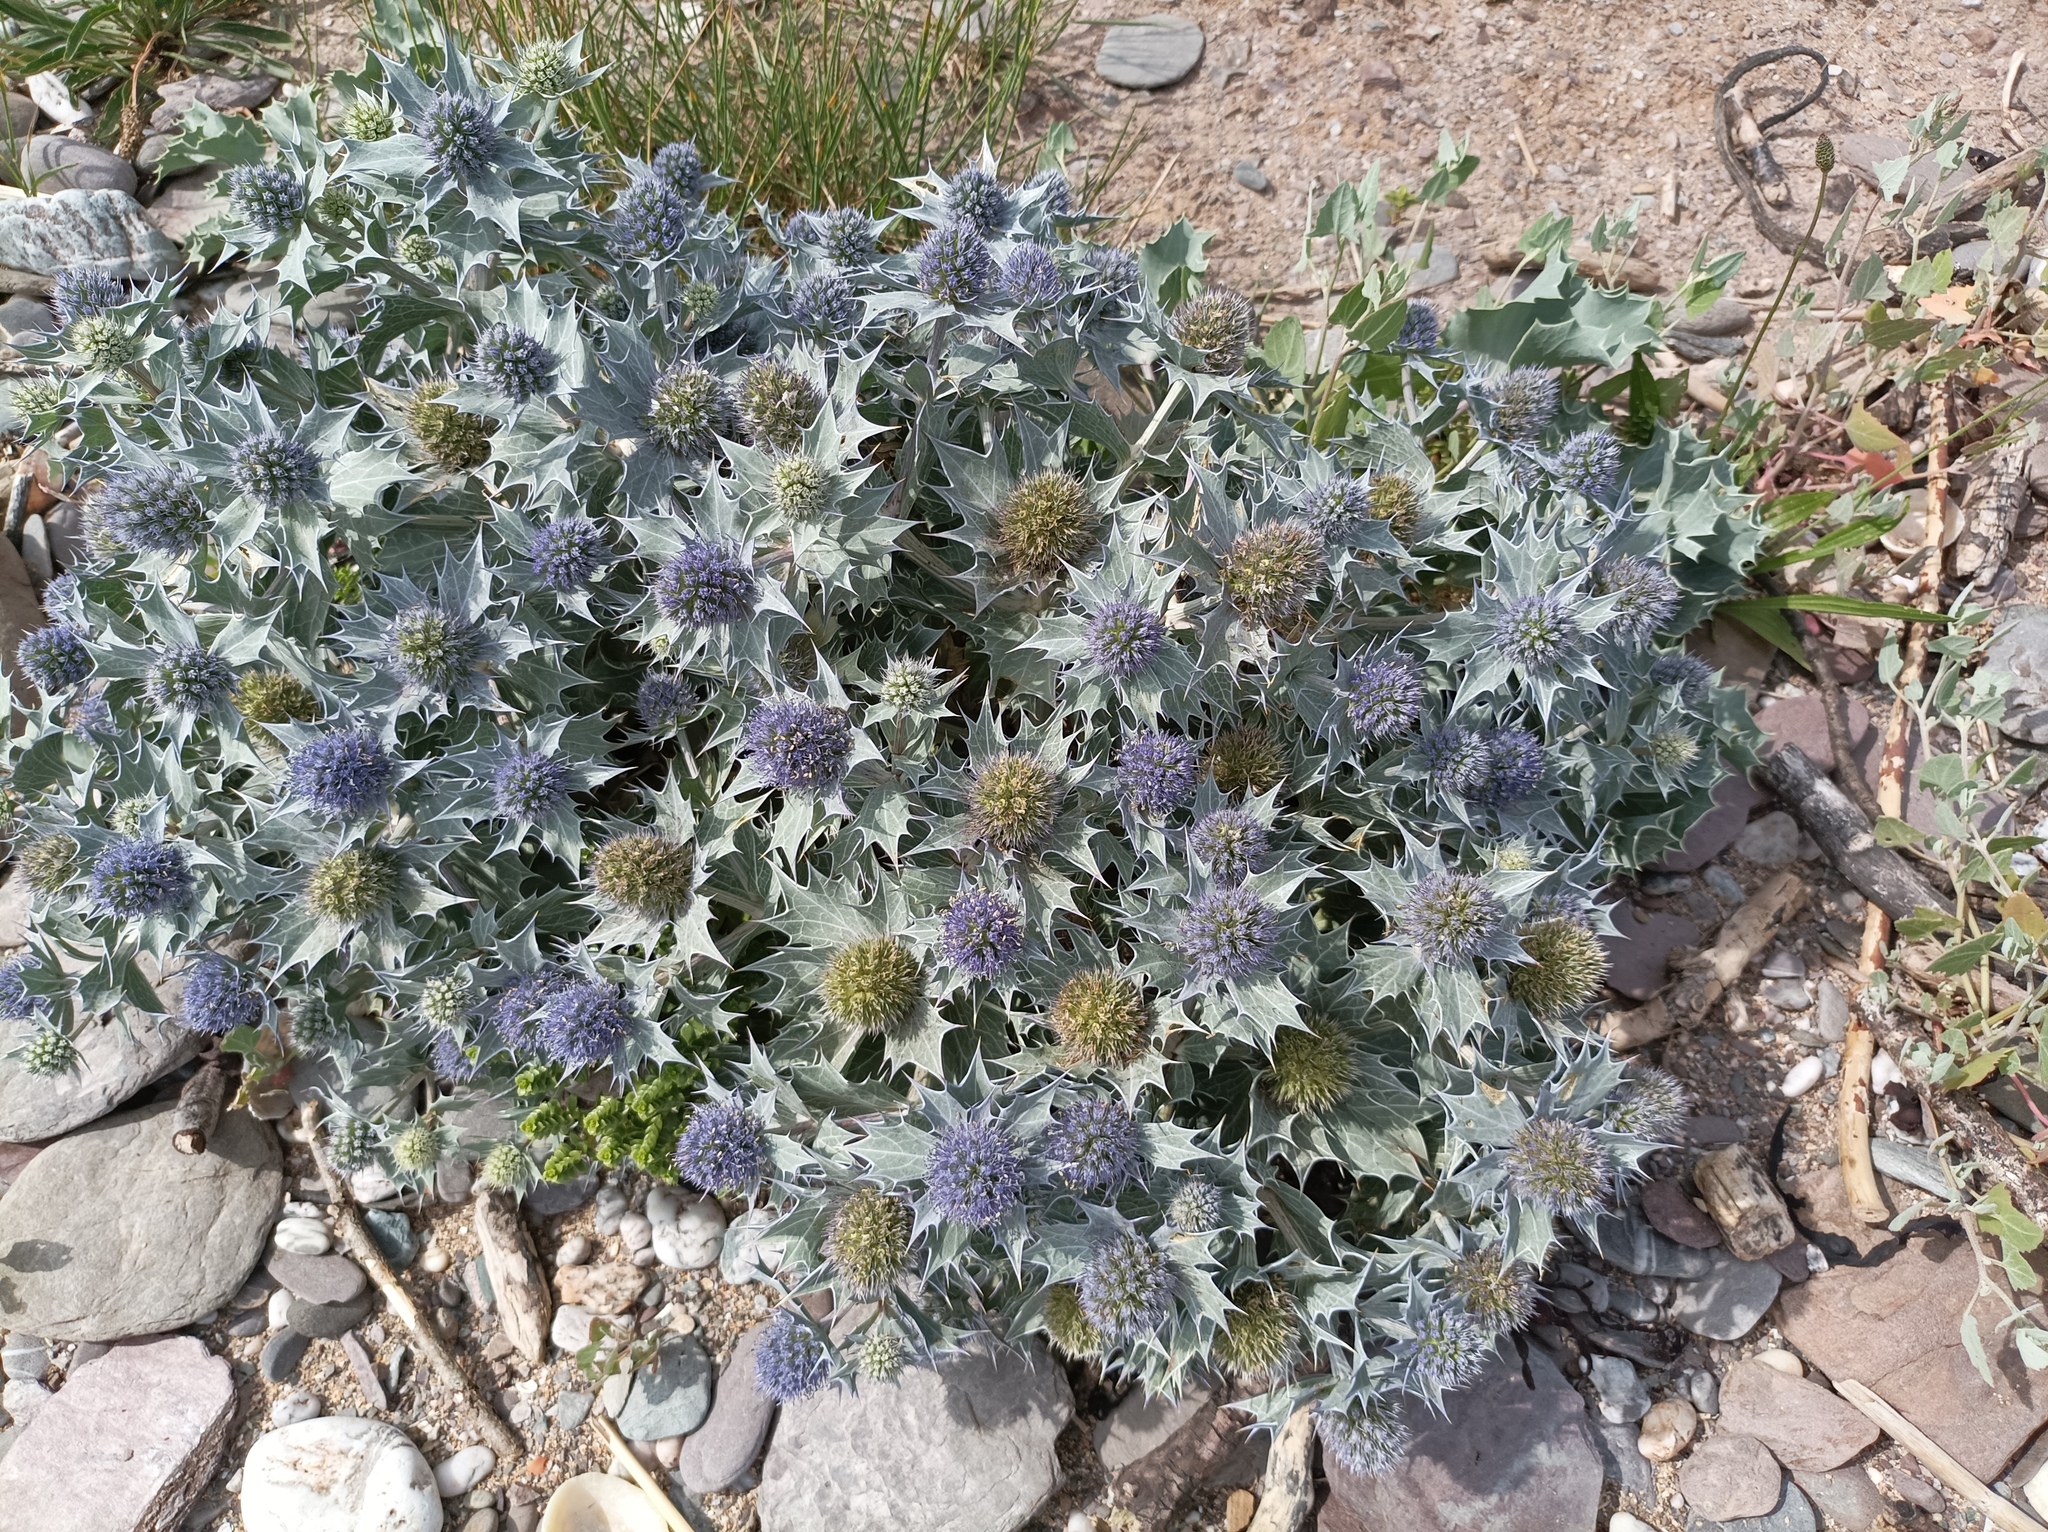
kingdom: Plantae
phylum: Tracheophyta
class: Magnoliopsida
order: Apiales
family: Apiaceae
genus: Eryngium
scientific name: Eryngium maritimum
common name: Sea-holly
